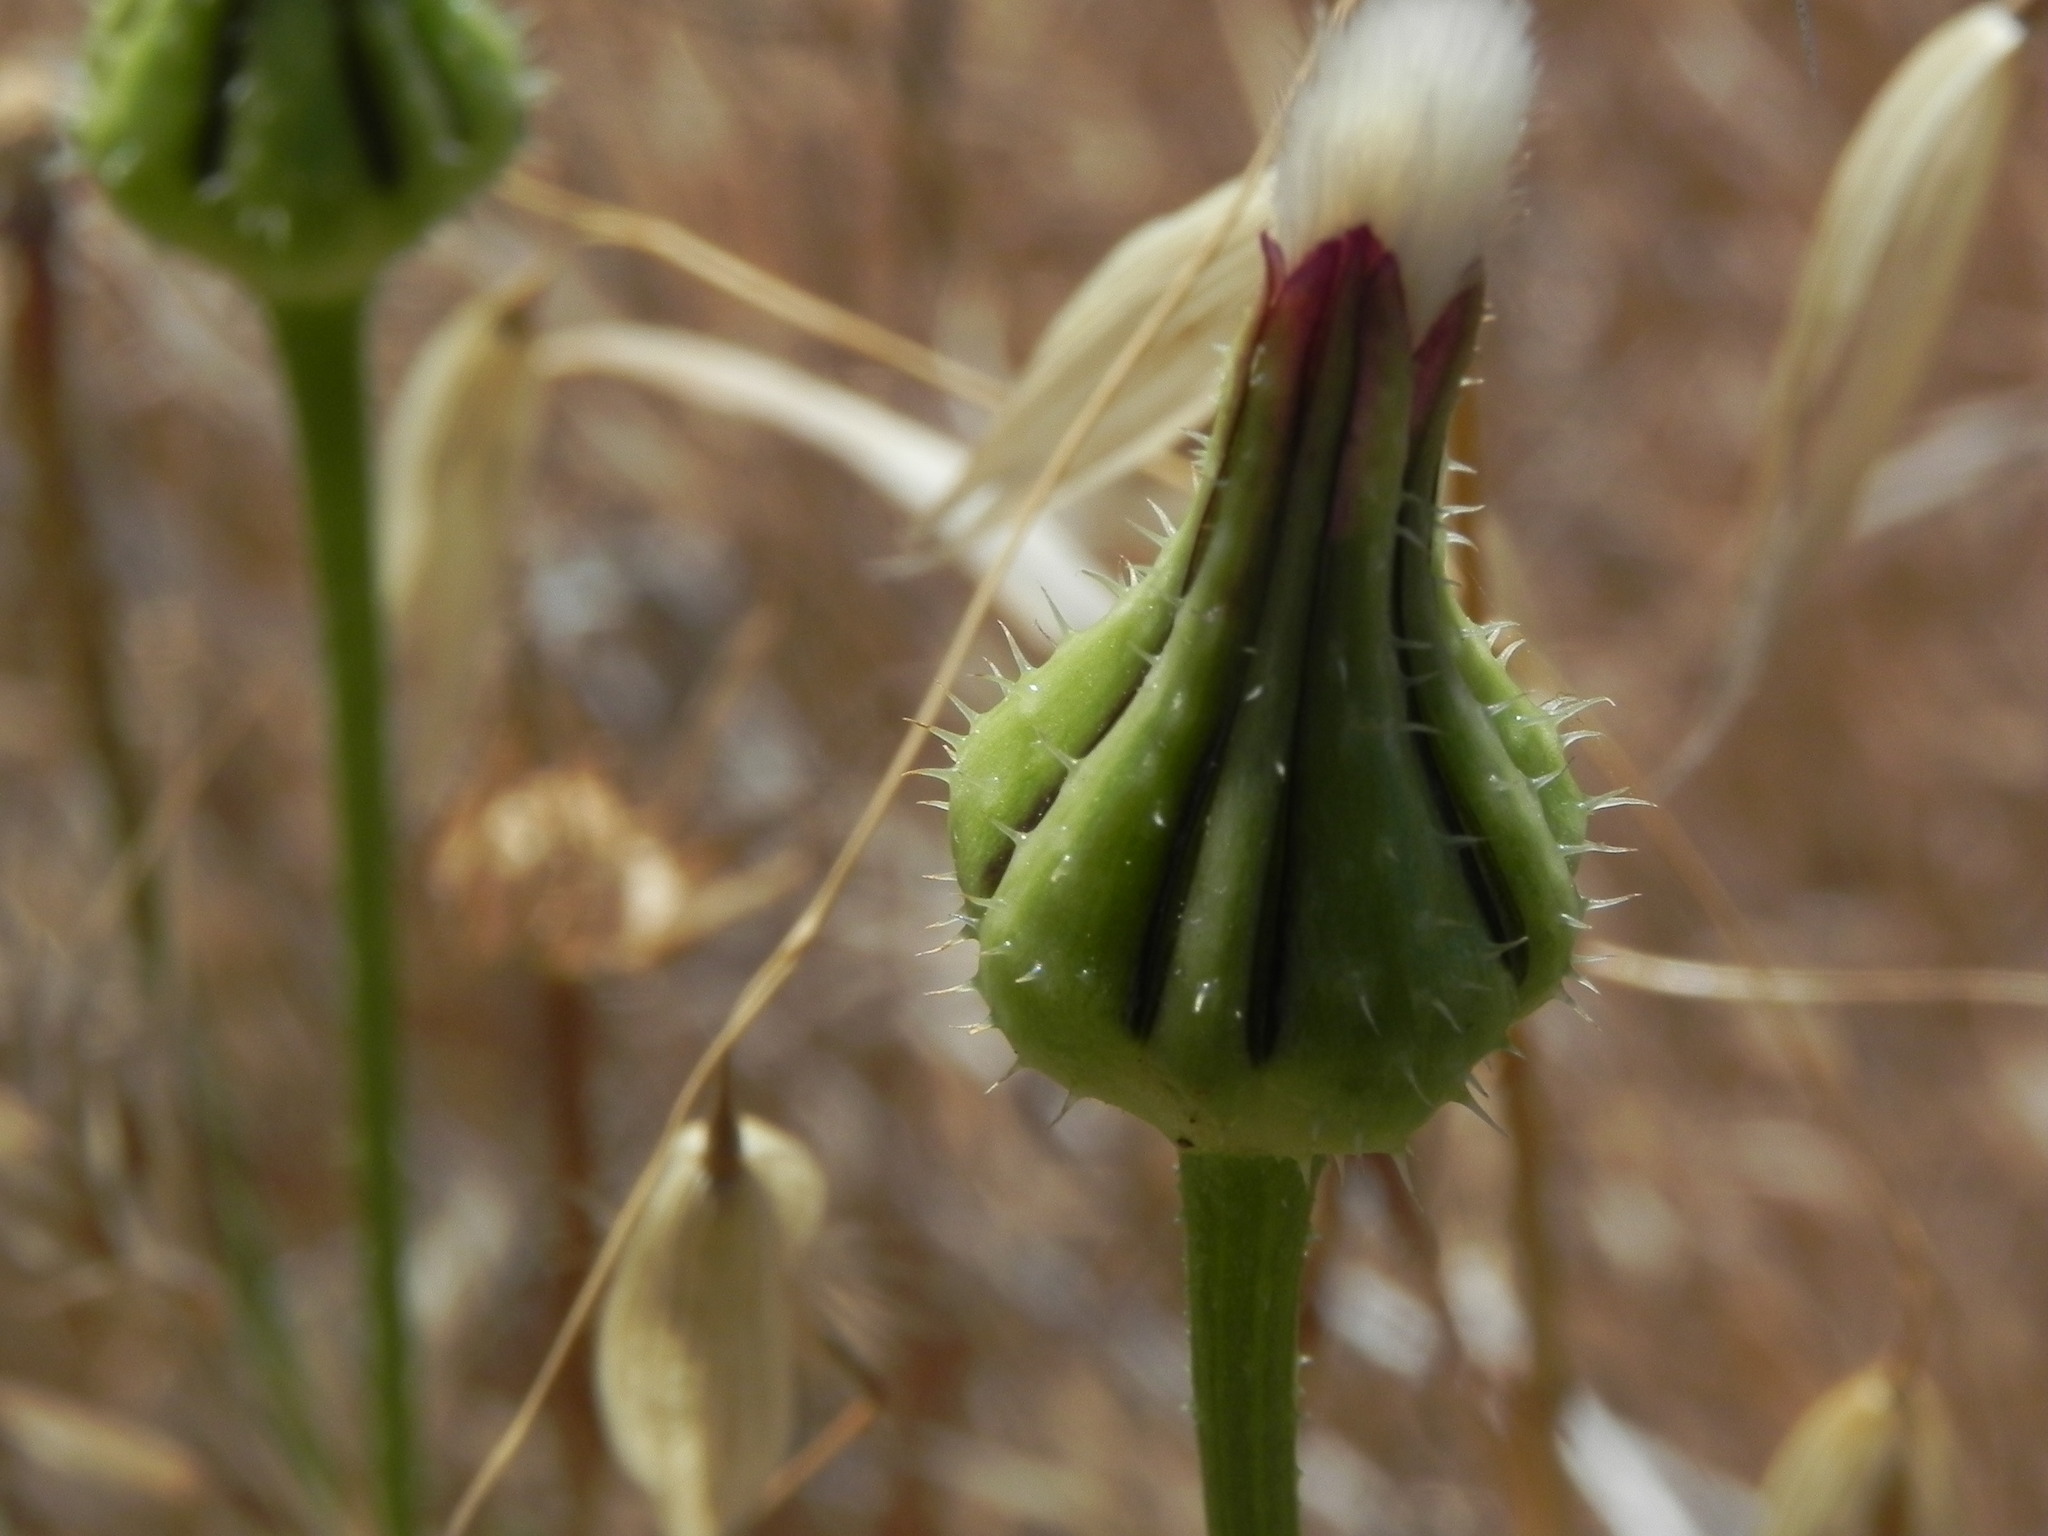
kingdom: Plantae
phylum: Tracheophyta
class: Magnoliopsida
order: Asterales
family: Asteraceae
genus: Urospermum
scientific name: Urospermum picroides
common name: False hawkbit
